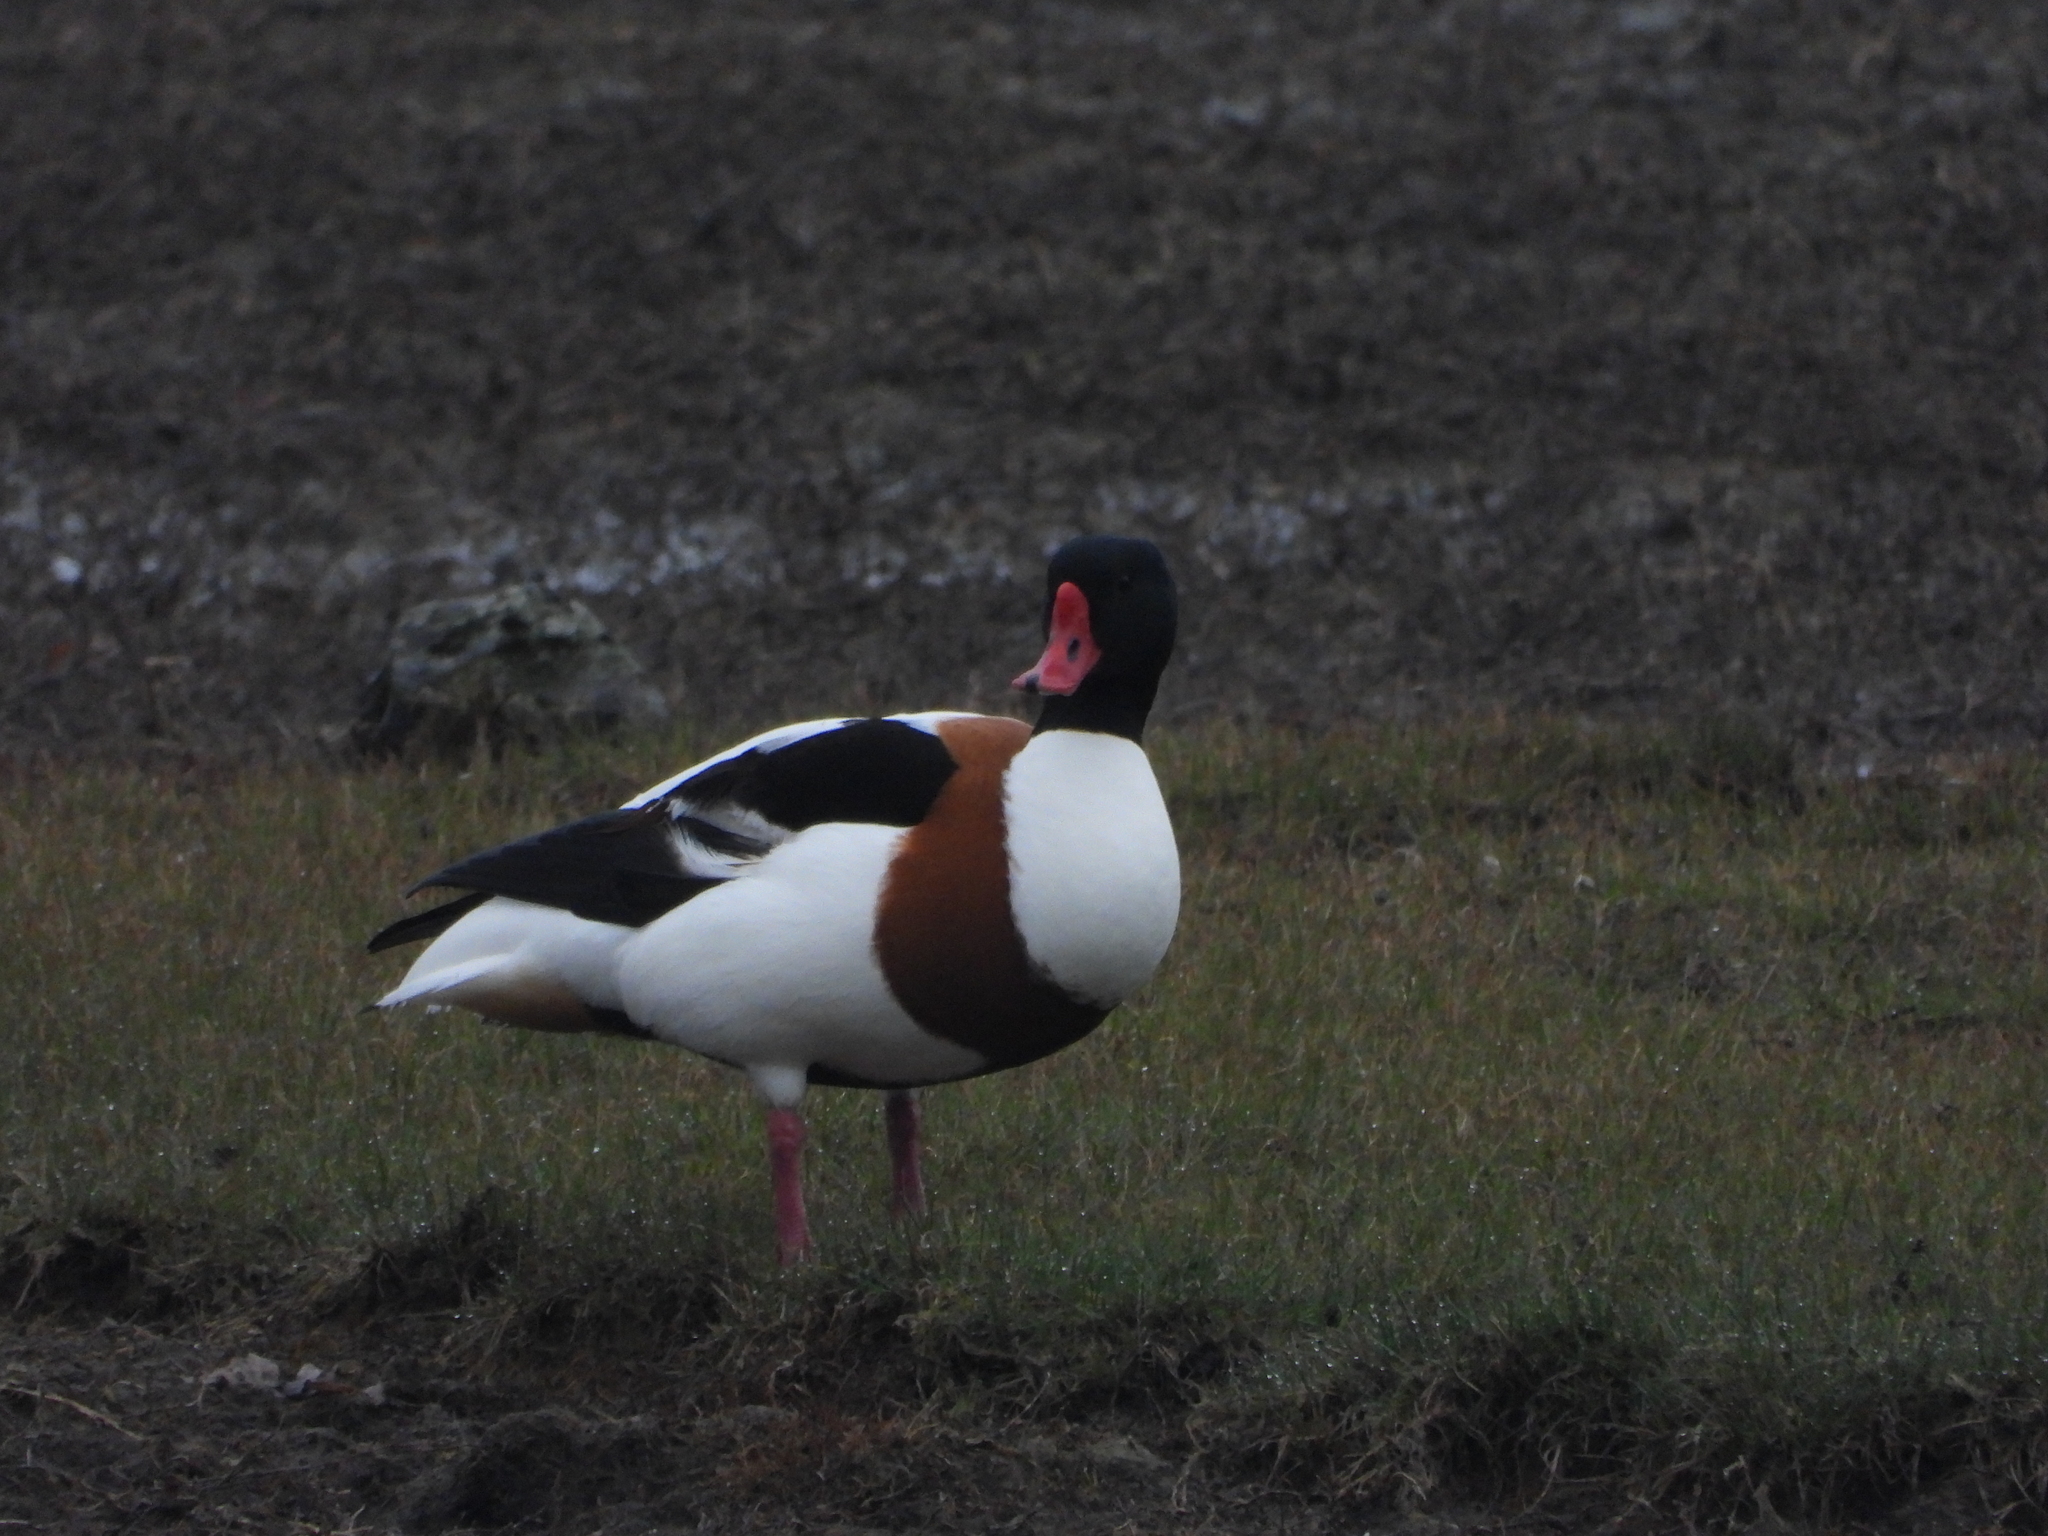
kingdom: Animalia
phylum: Chordata
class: Aves
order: Anseriformes
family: Anatidae
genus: Tadorna
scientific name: Tadorna tadorna
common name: Common shelduck
